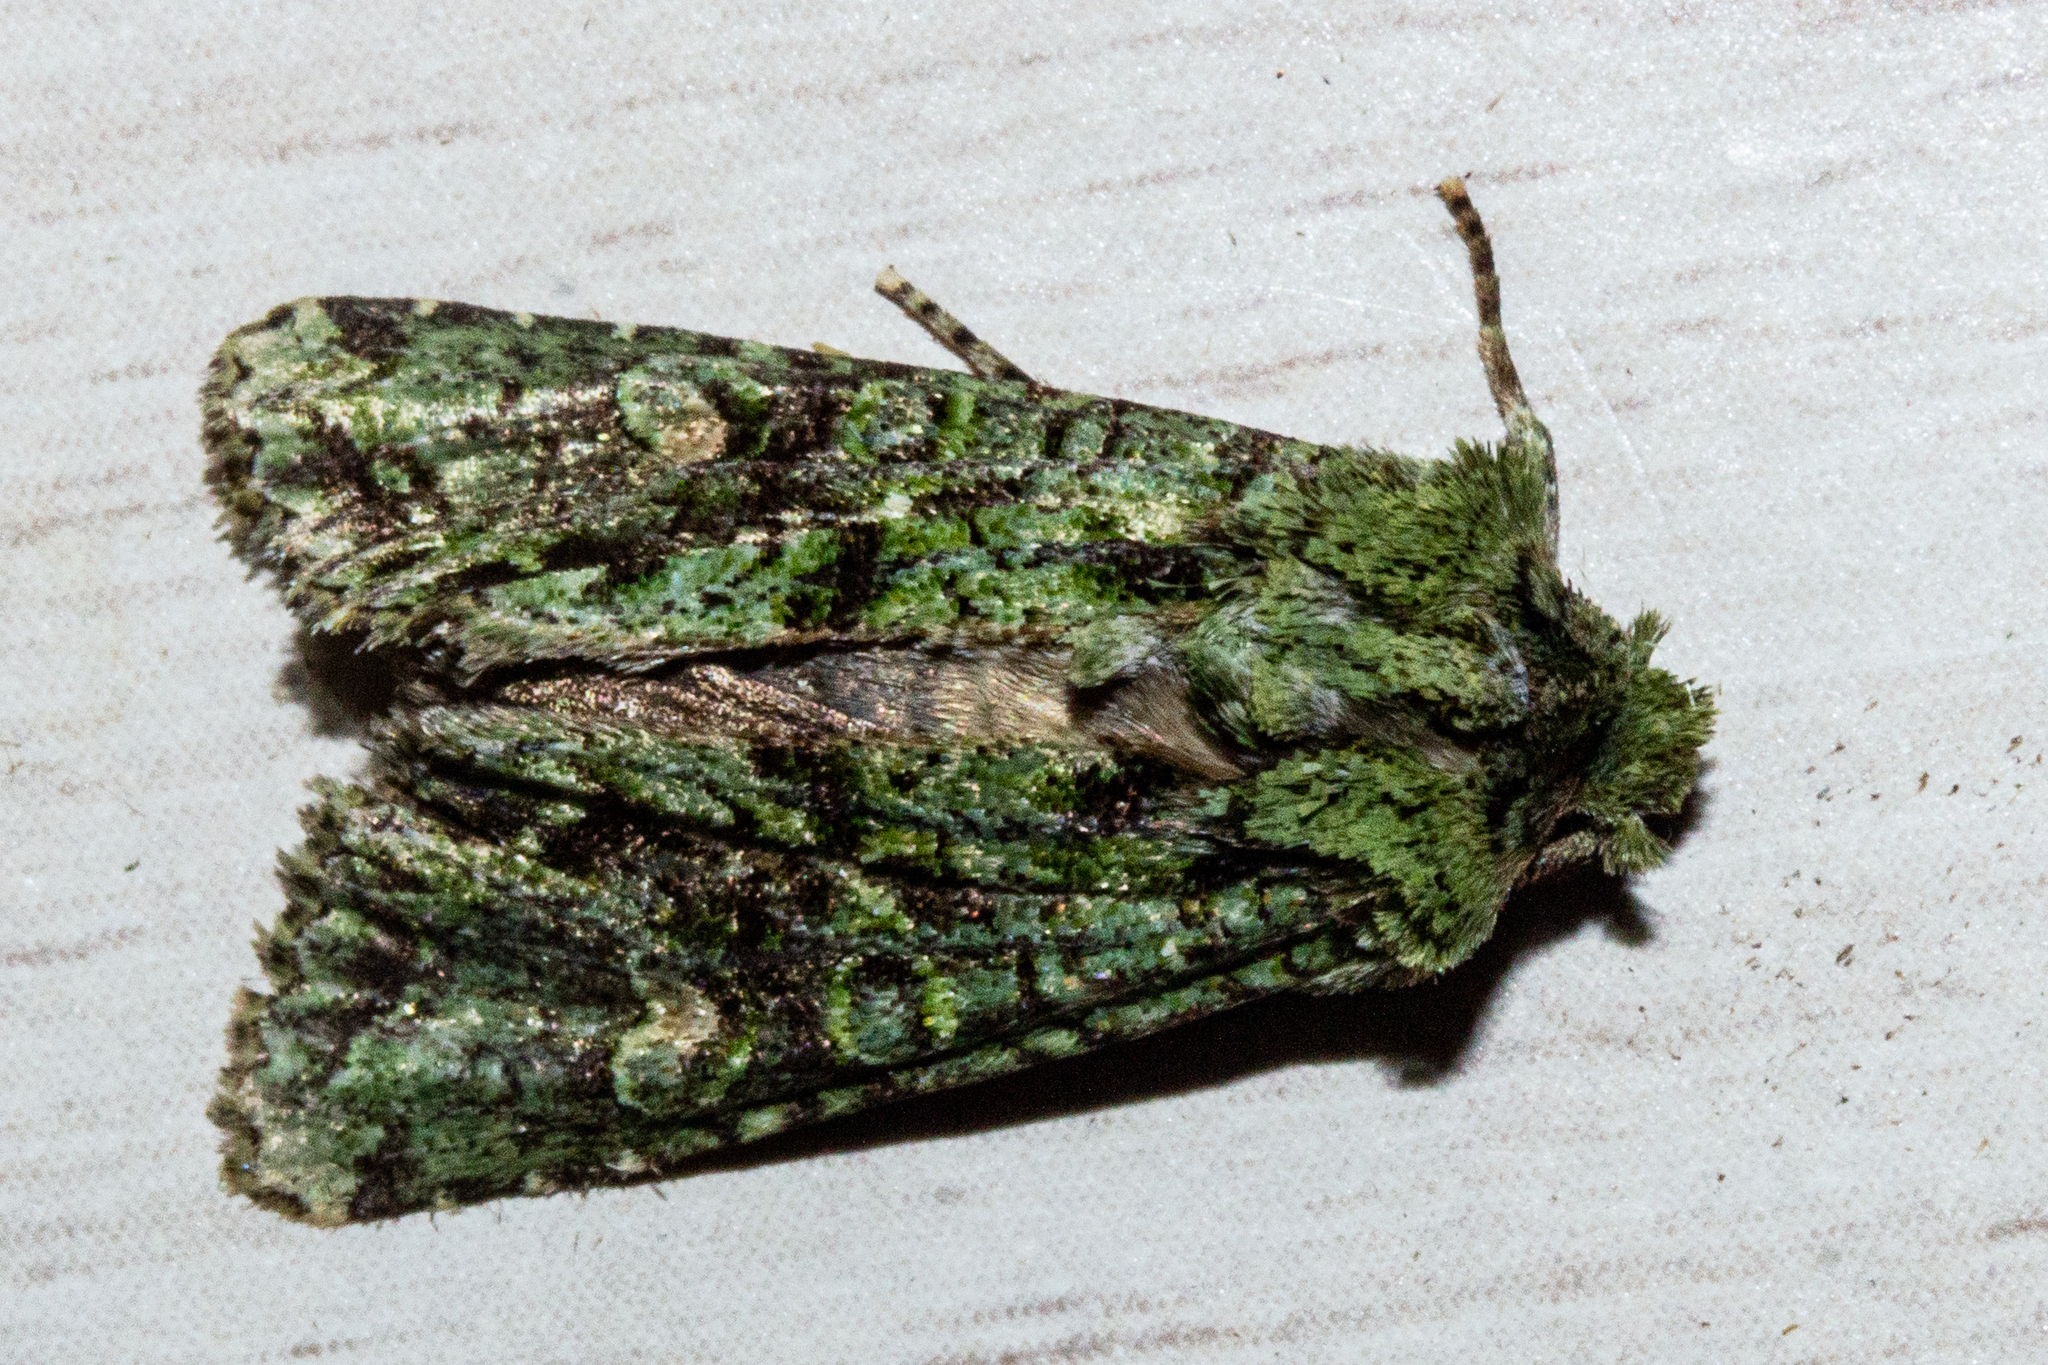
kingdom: Animalia
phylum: Arthropoda
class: Insecta
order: Lepidoptera
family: Noctuidae
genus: Ichneutica
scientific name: Ichneutica
